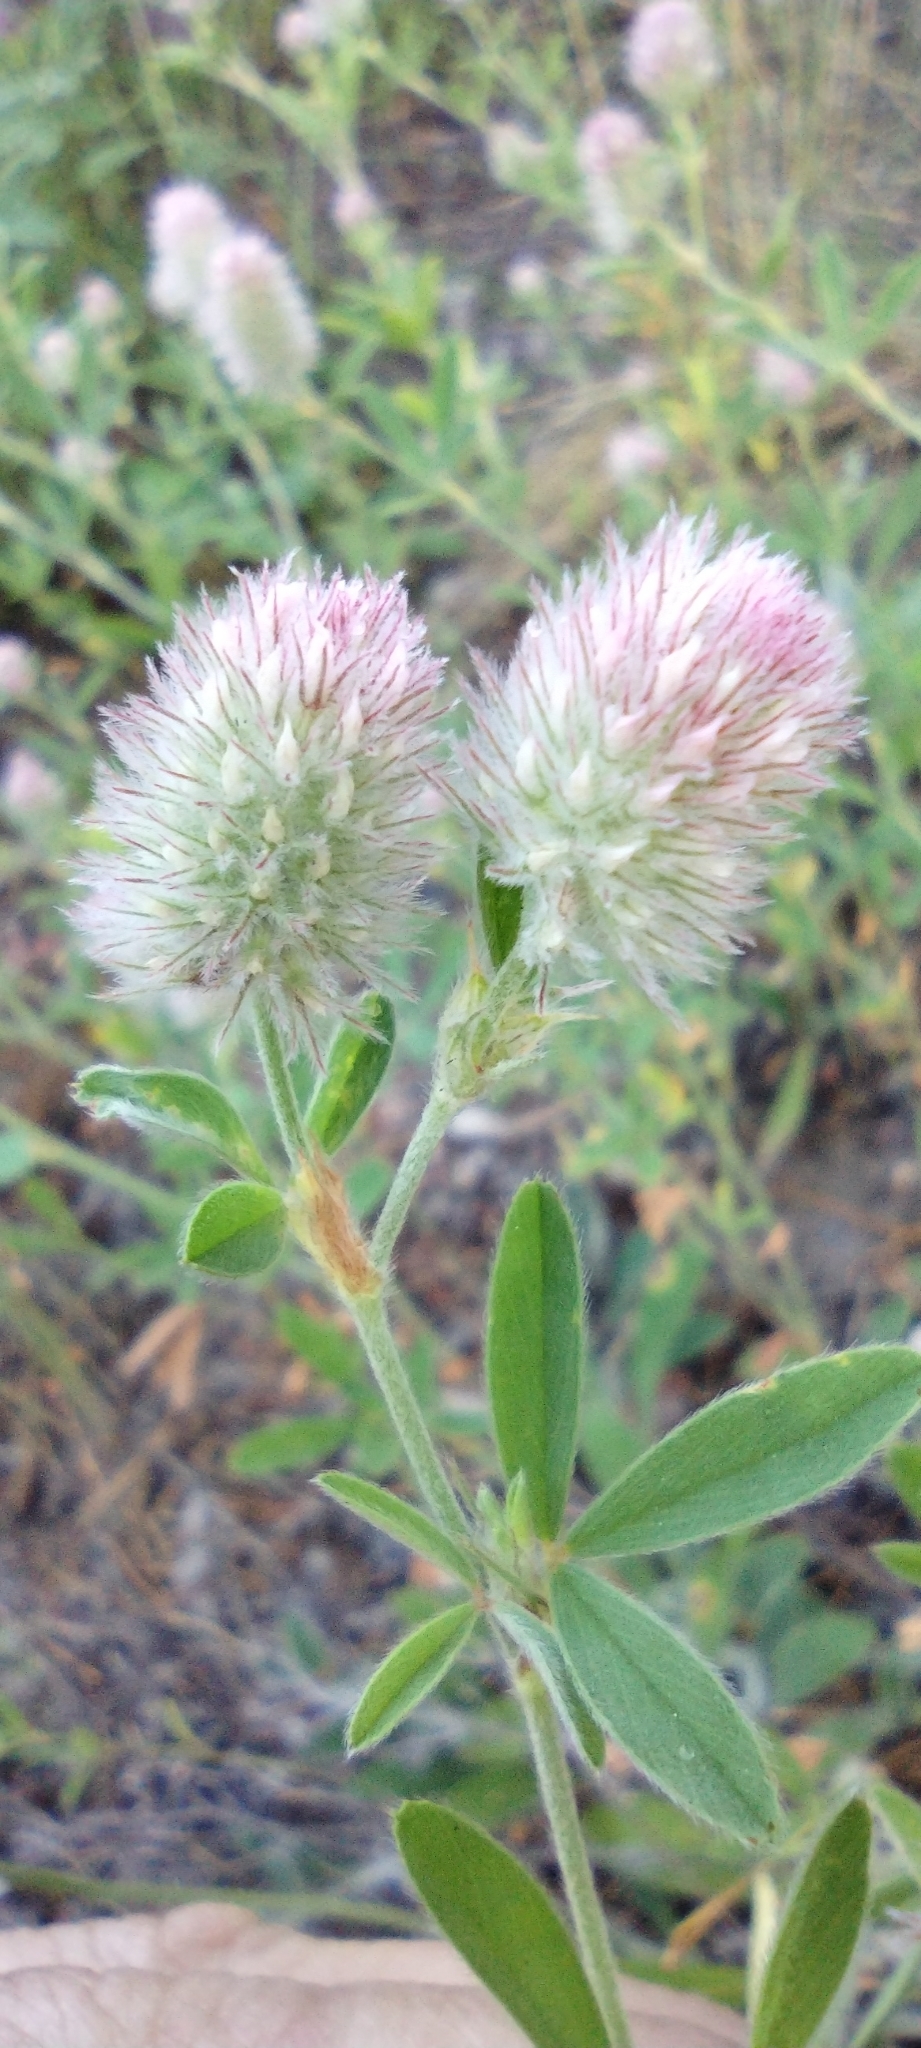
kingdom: Plantae
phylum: Tracheophyta
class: Magnoliopsida
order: Fabales
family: Fabaceae
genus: Trifolium
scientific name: Trifolium arvense
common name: Hare's-foot clover
